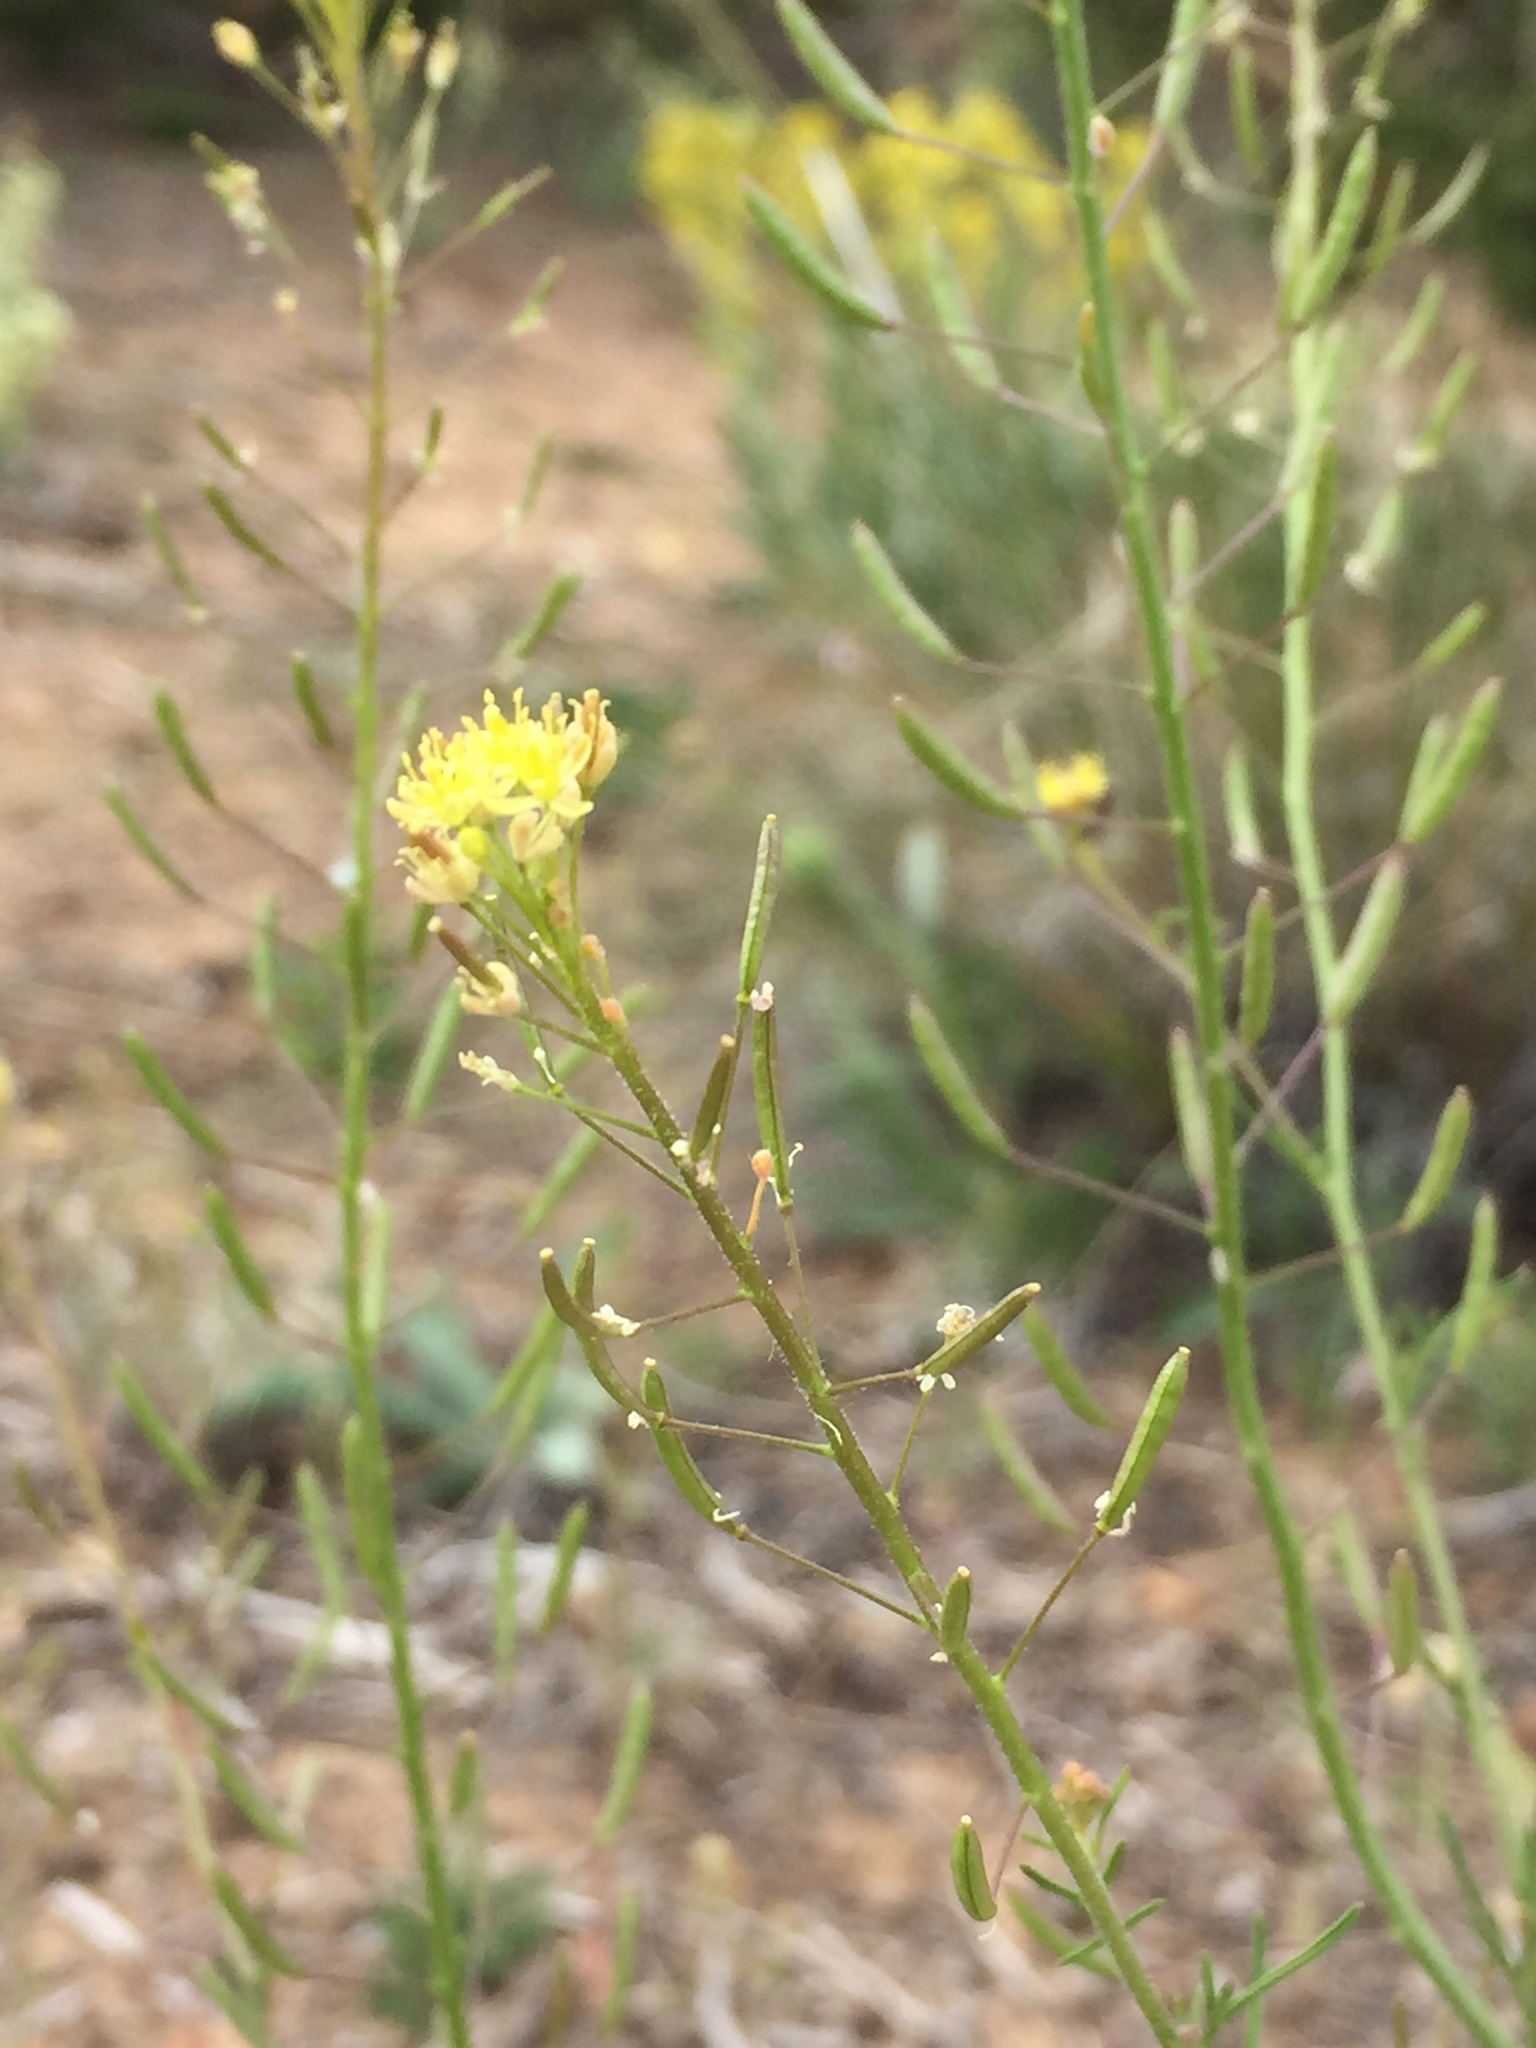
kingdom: Plantae
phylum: Tracheophyta
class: Magnoliopsida
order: Brassicales
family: Brassicaceae
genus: Descurainia
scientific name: Descurainia pinnata
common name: Western tansy mustard
